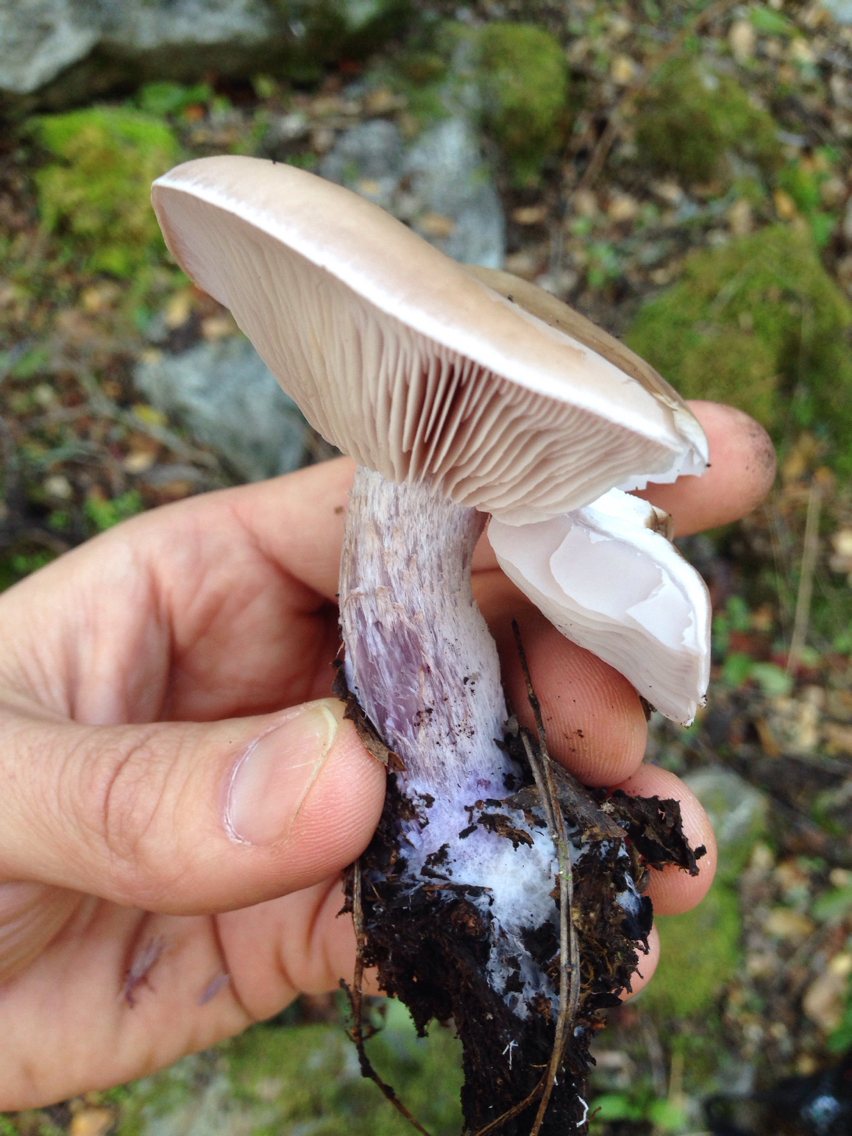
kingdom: Fungi
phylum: Basidiomycota
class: Agaricomycetes
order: Agaricales
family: Tricholomataceae
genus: Collybia
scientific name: Collybia
